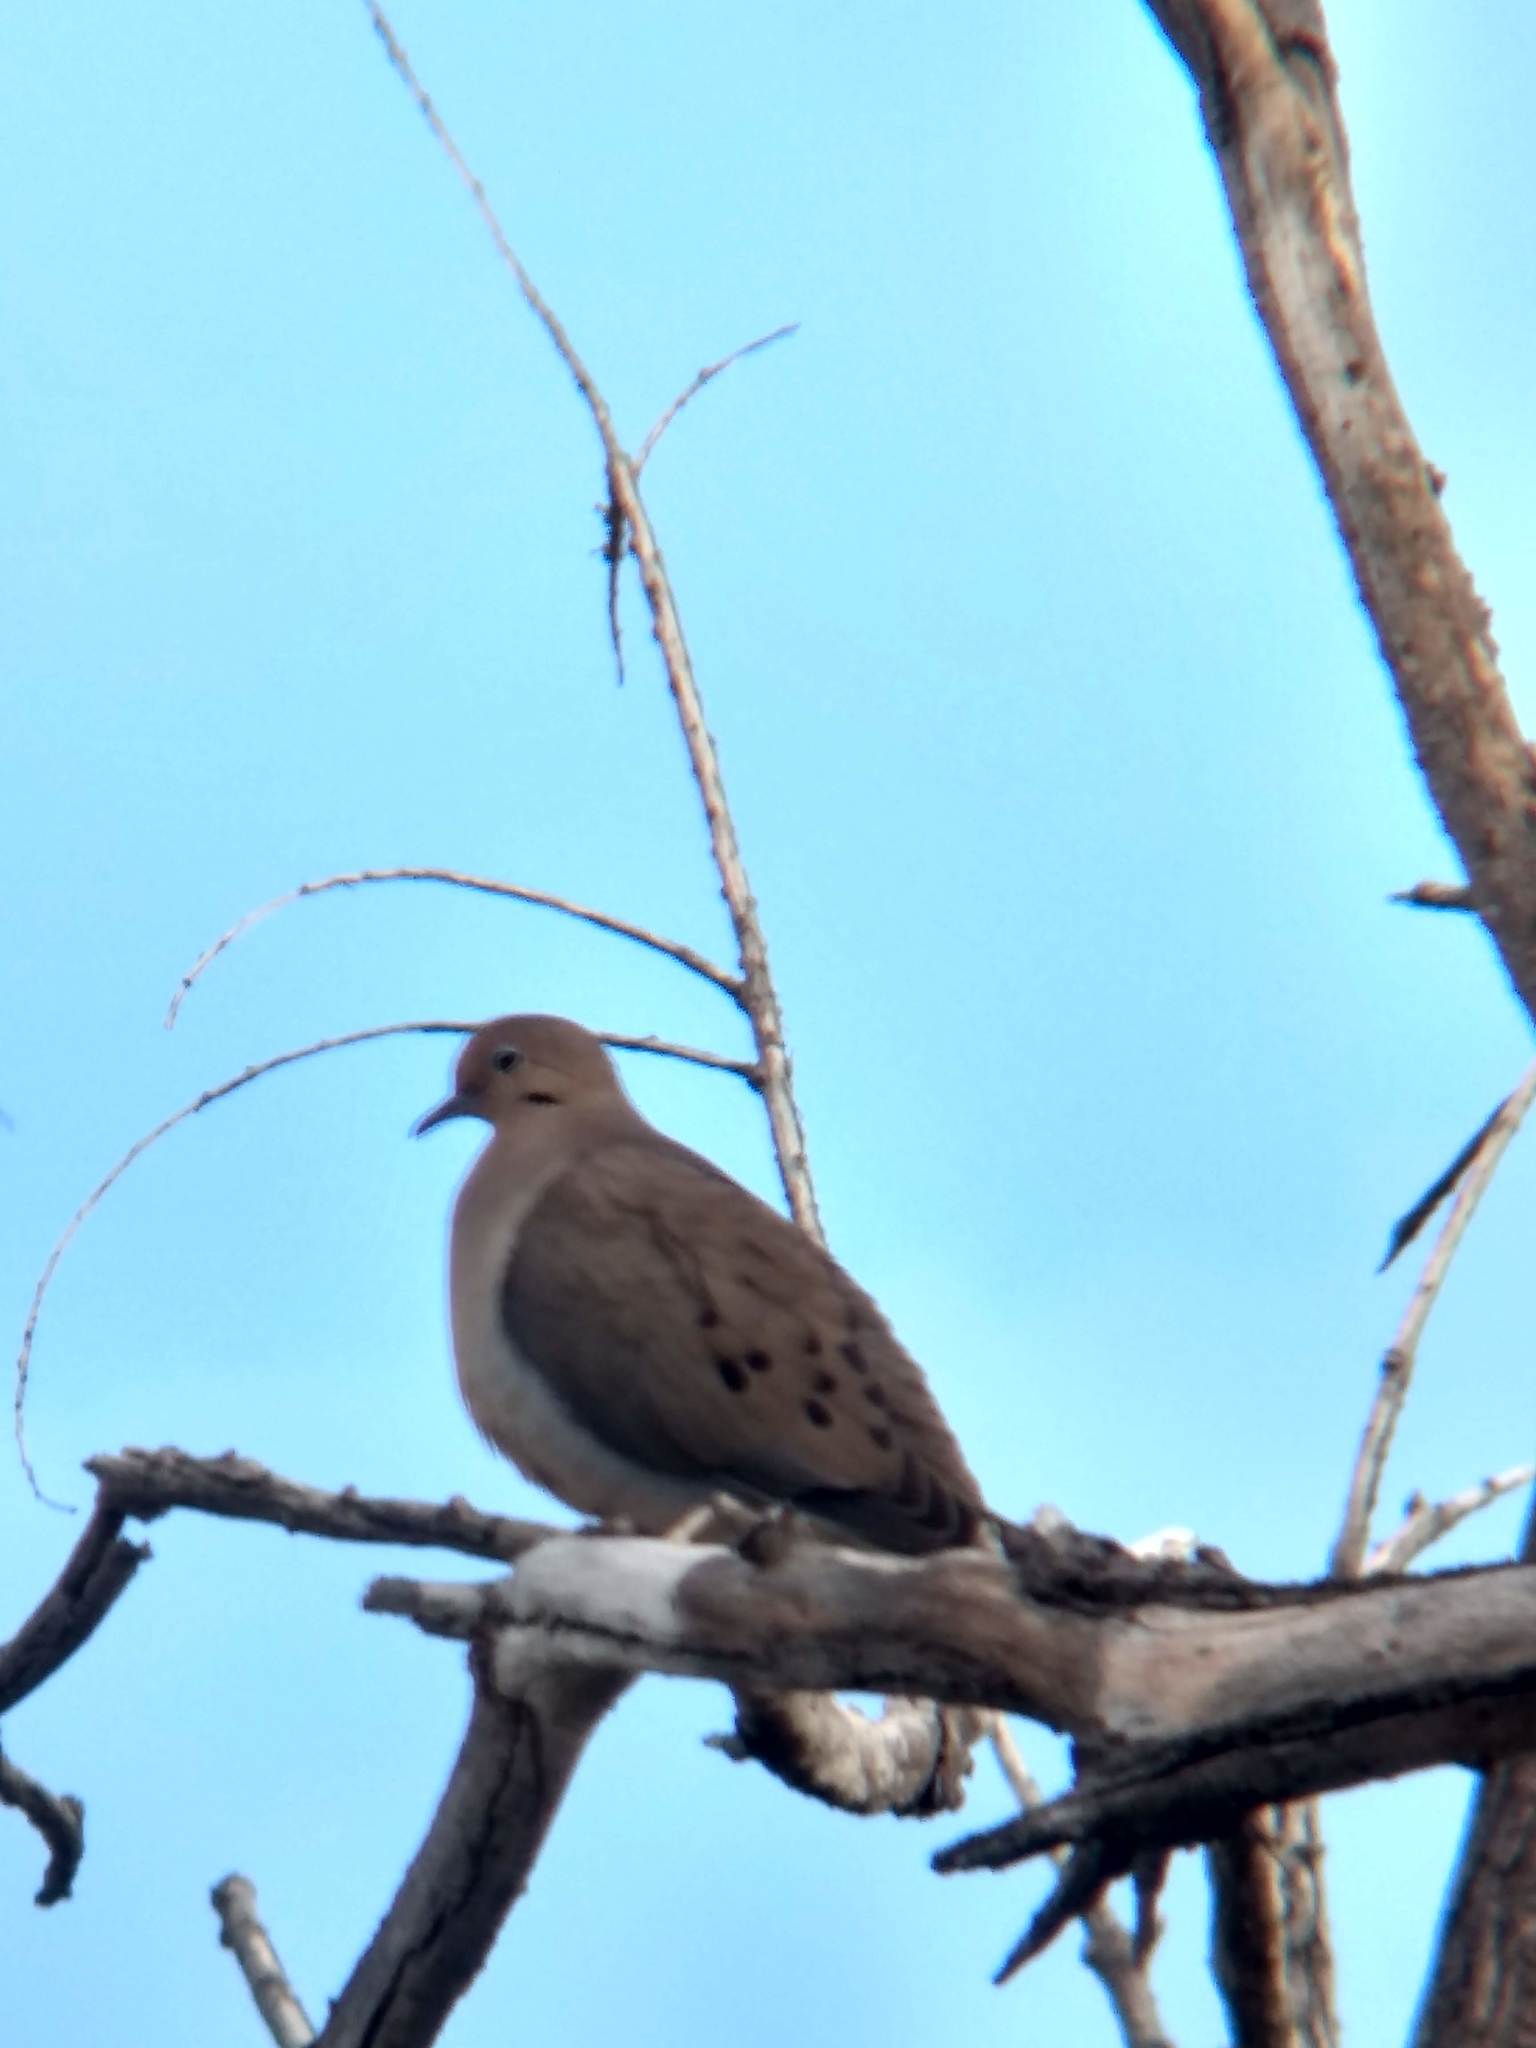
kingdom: Animalia
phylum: Chordata
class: Aves
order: Columbiformes
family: Columbidae
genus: Zenaida
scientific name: Zenaida macroura
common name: Mourning dove
